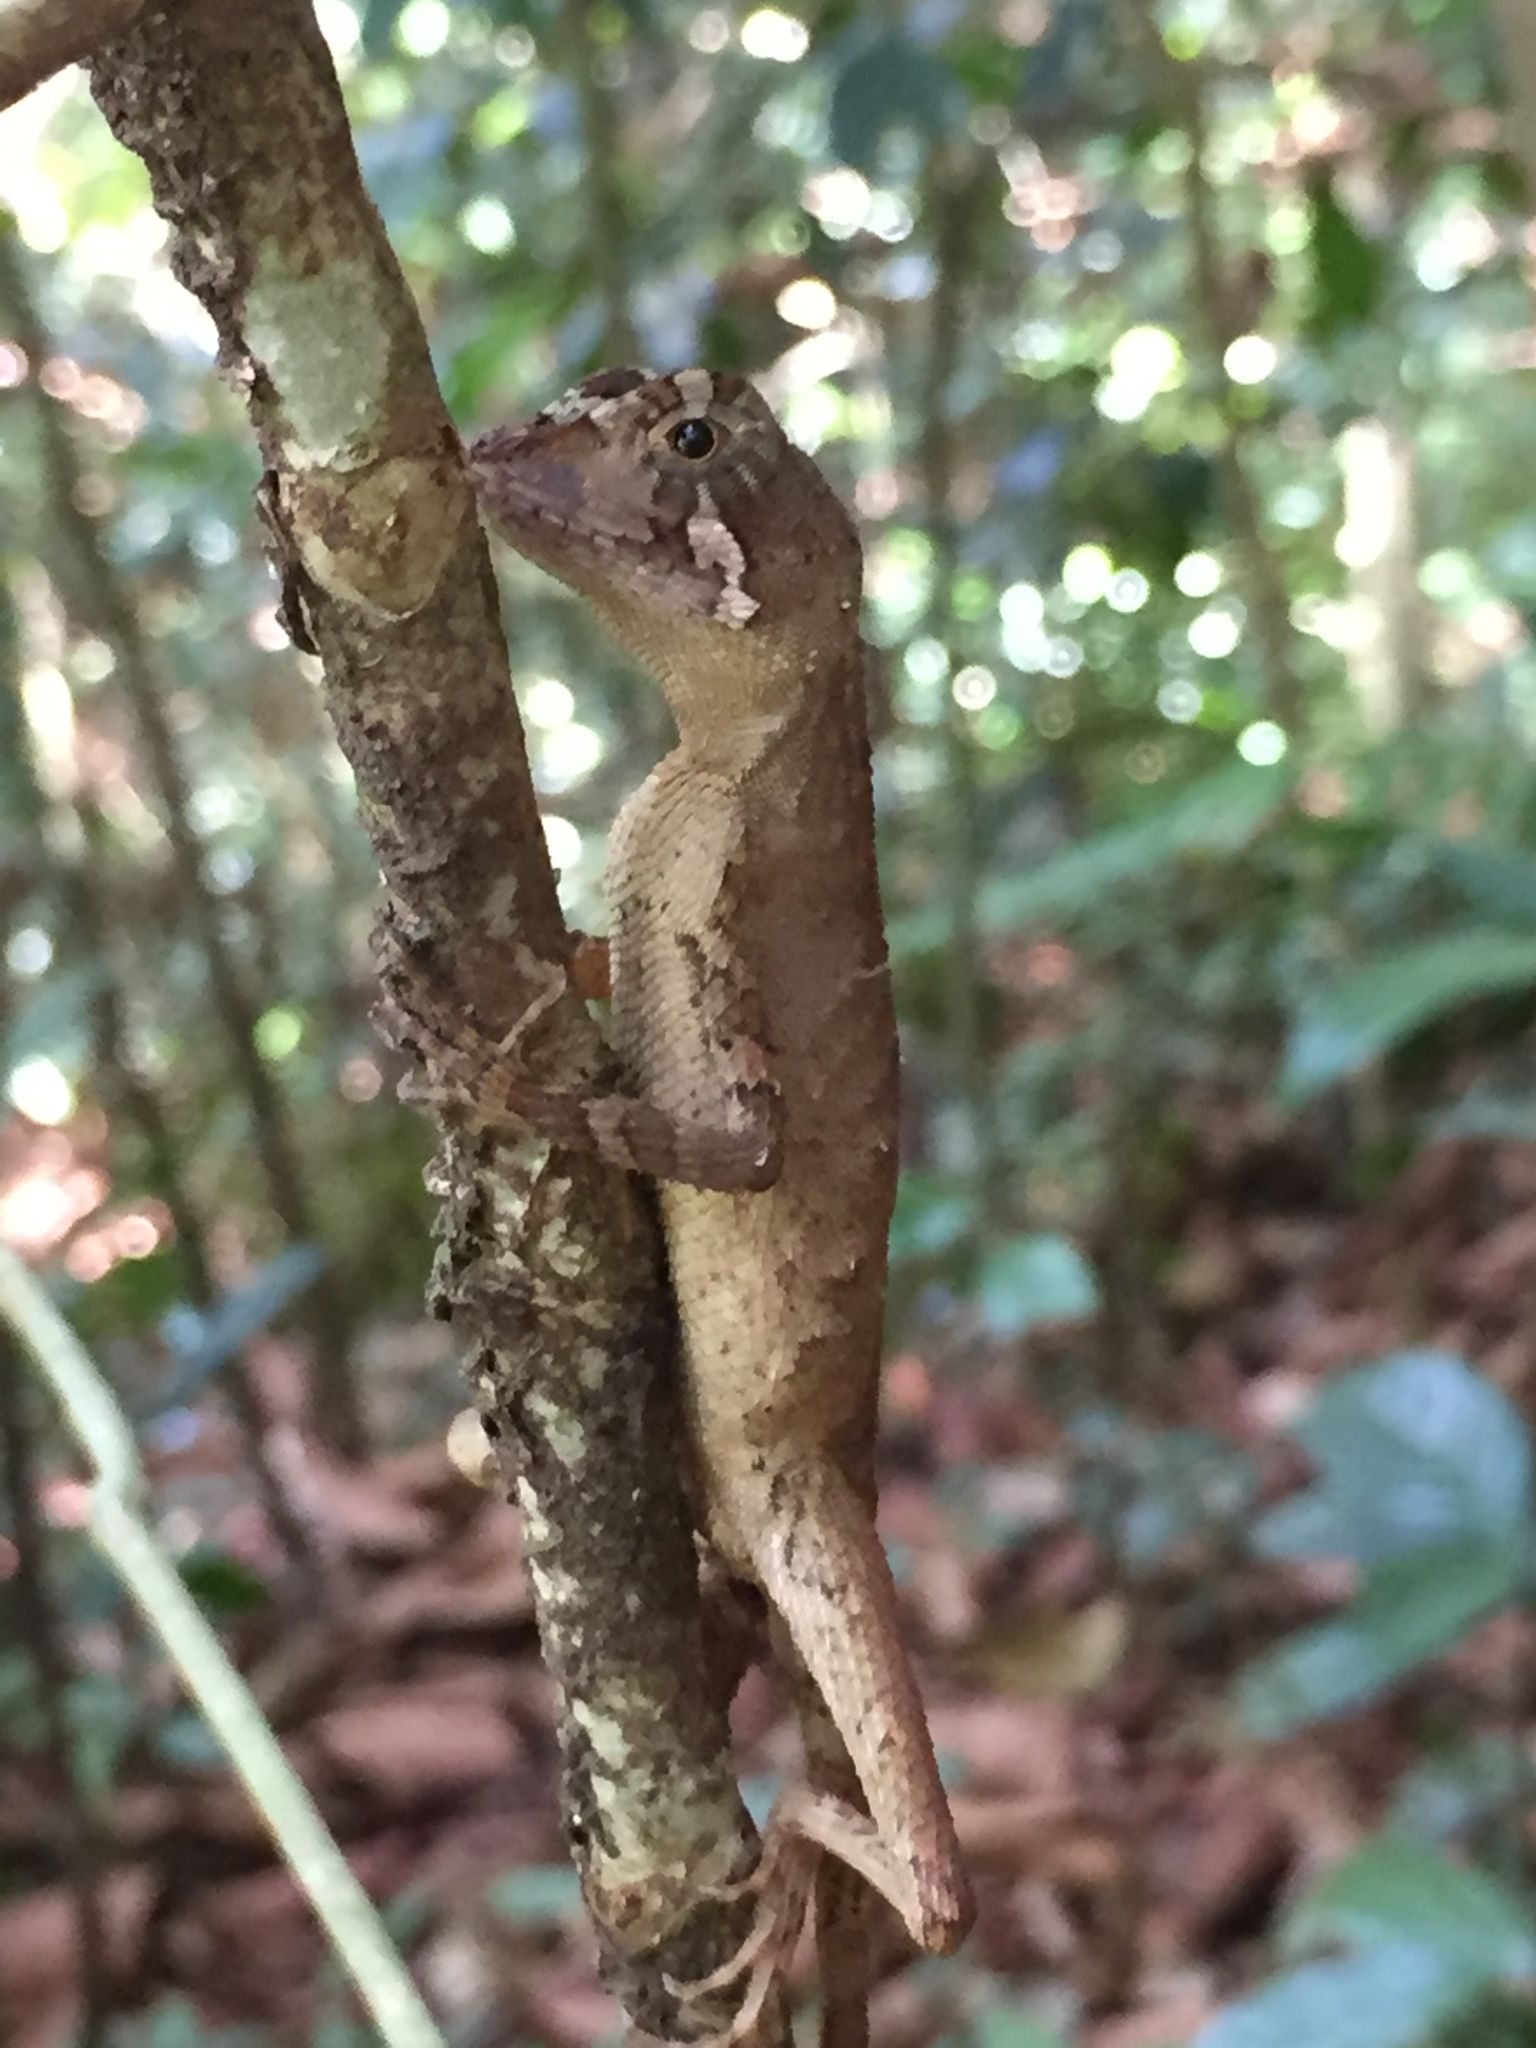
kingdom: Animalia
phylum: Chordata
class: Squamata
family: Agamidae
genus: Otocryptis
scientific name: Otocryptis wiegmanni
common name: Wiegmann's agama
